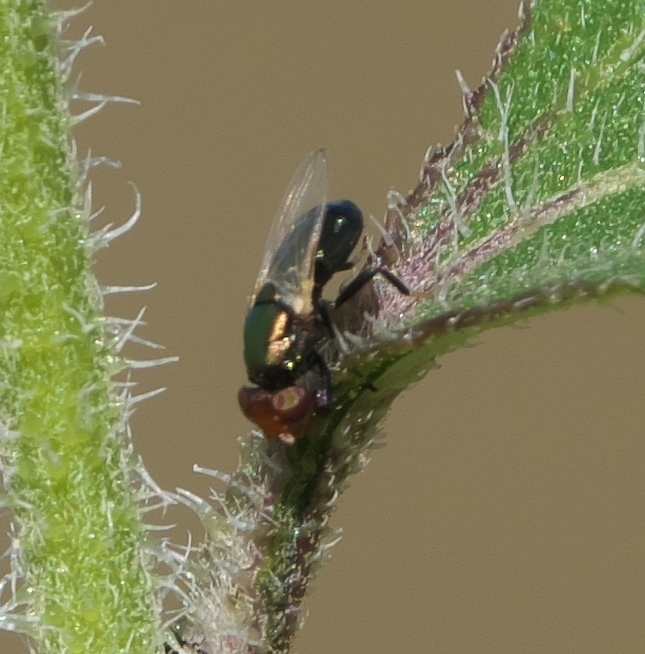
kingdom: Animalia
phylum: Arthropoda
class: Insecta
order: Diptera
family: Ulidiidae
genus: Physiphora
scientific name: Physiphora alceae
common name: Picture-winged fly
